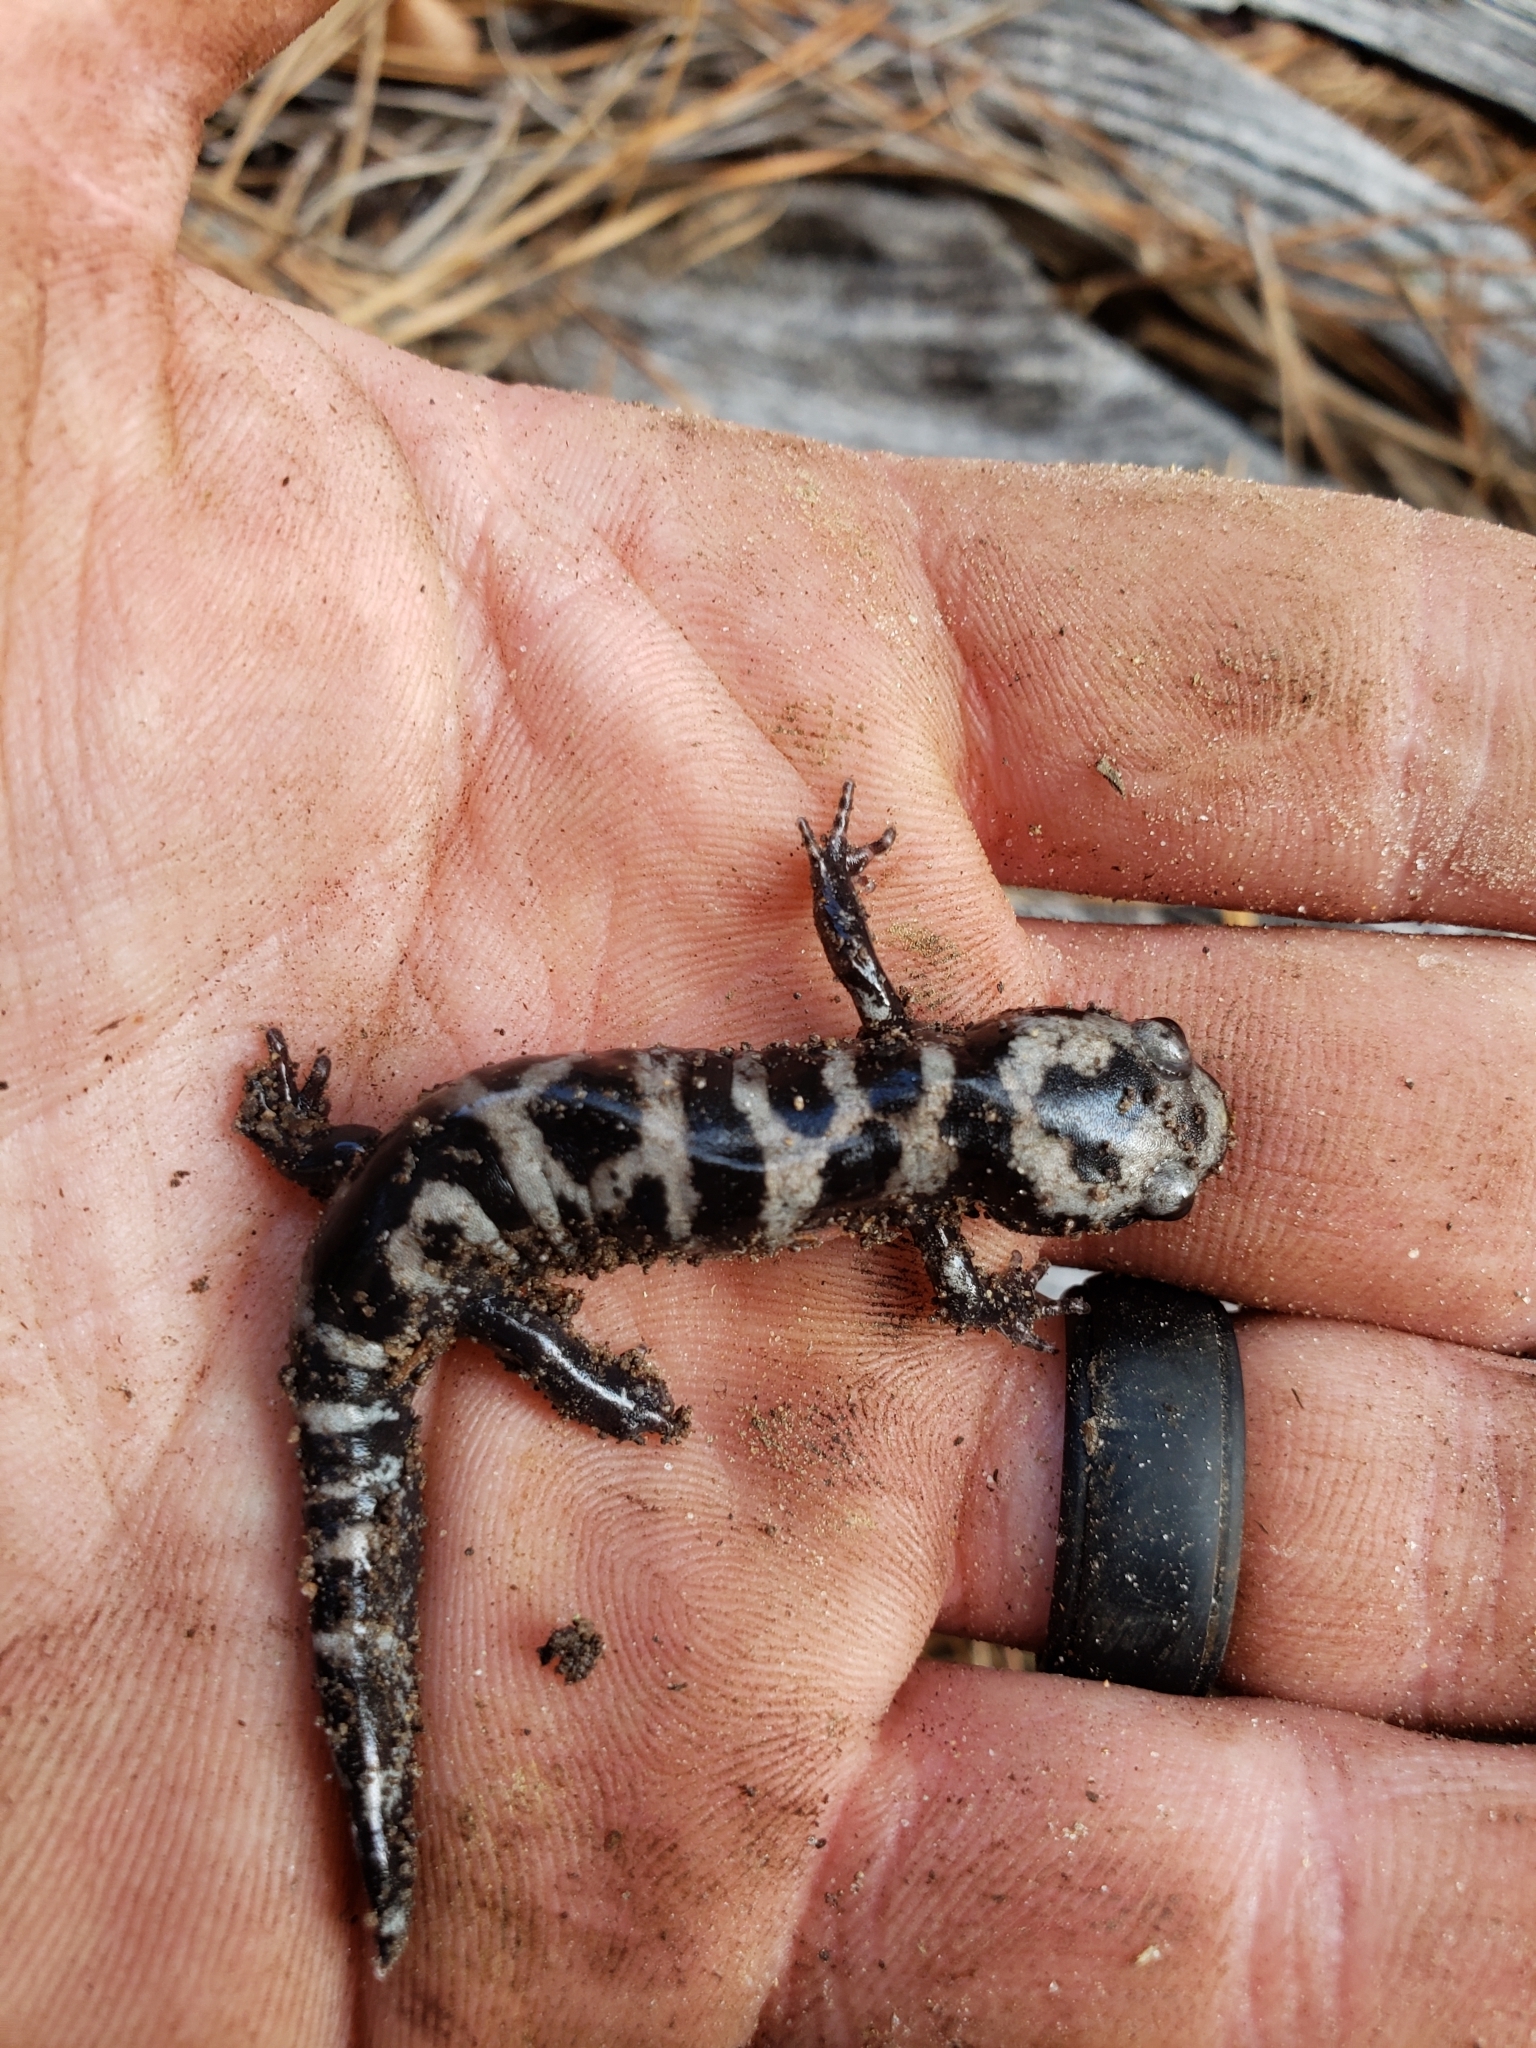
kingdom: Animalia
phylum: Chordata
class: Amphibia
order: Caudata
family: Ambystomatidae
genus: Ambystoma
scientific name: Ambystoma opacum
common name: Marbled salamander
